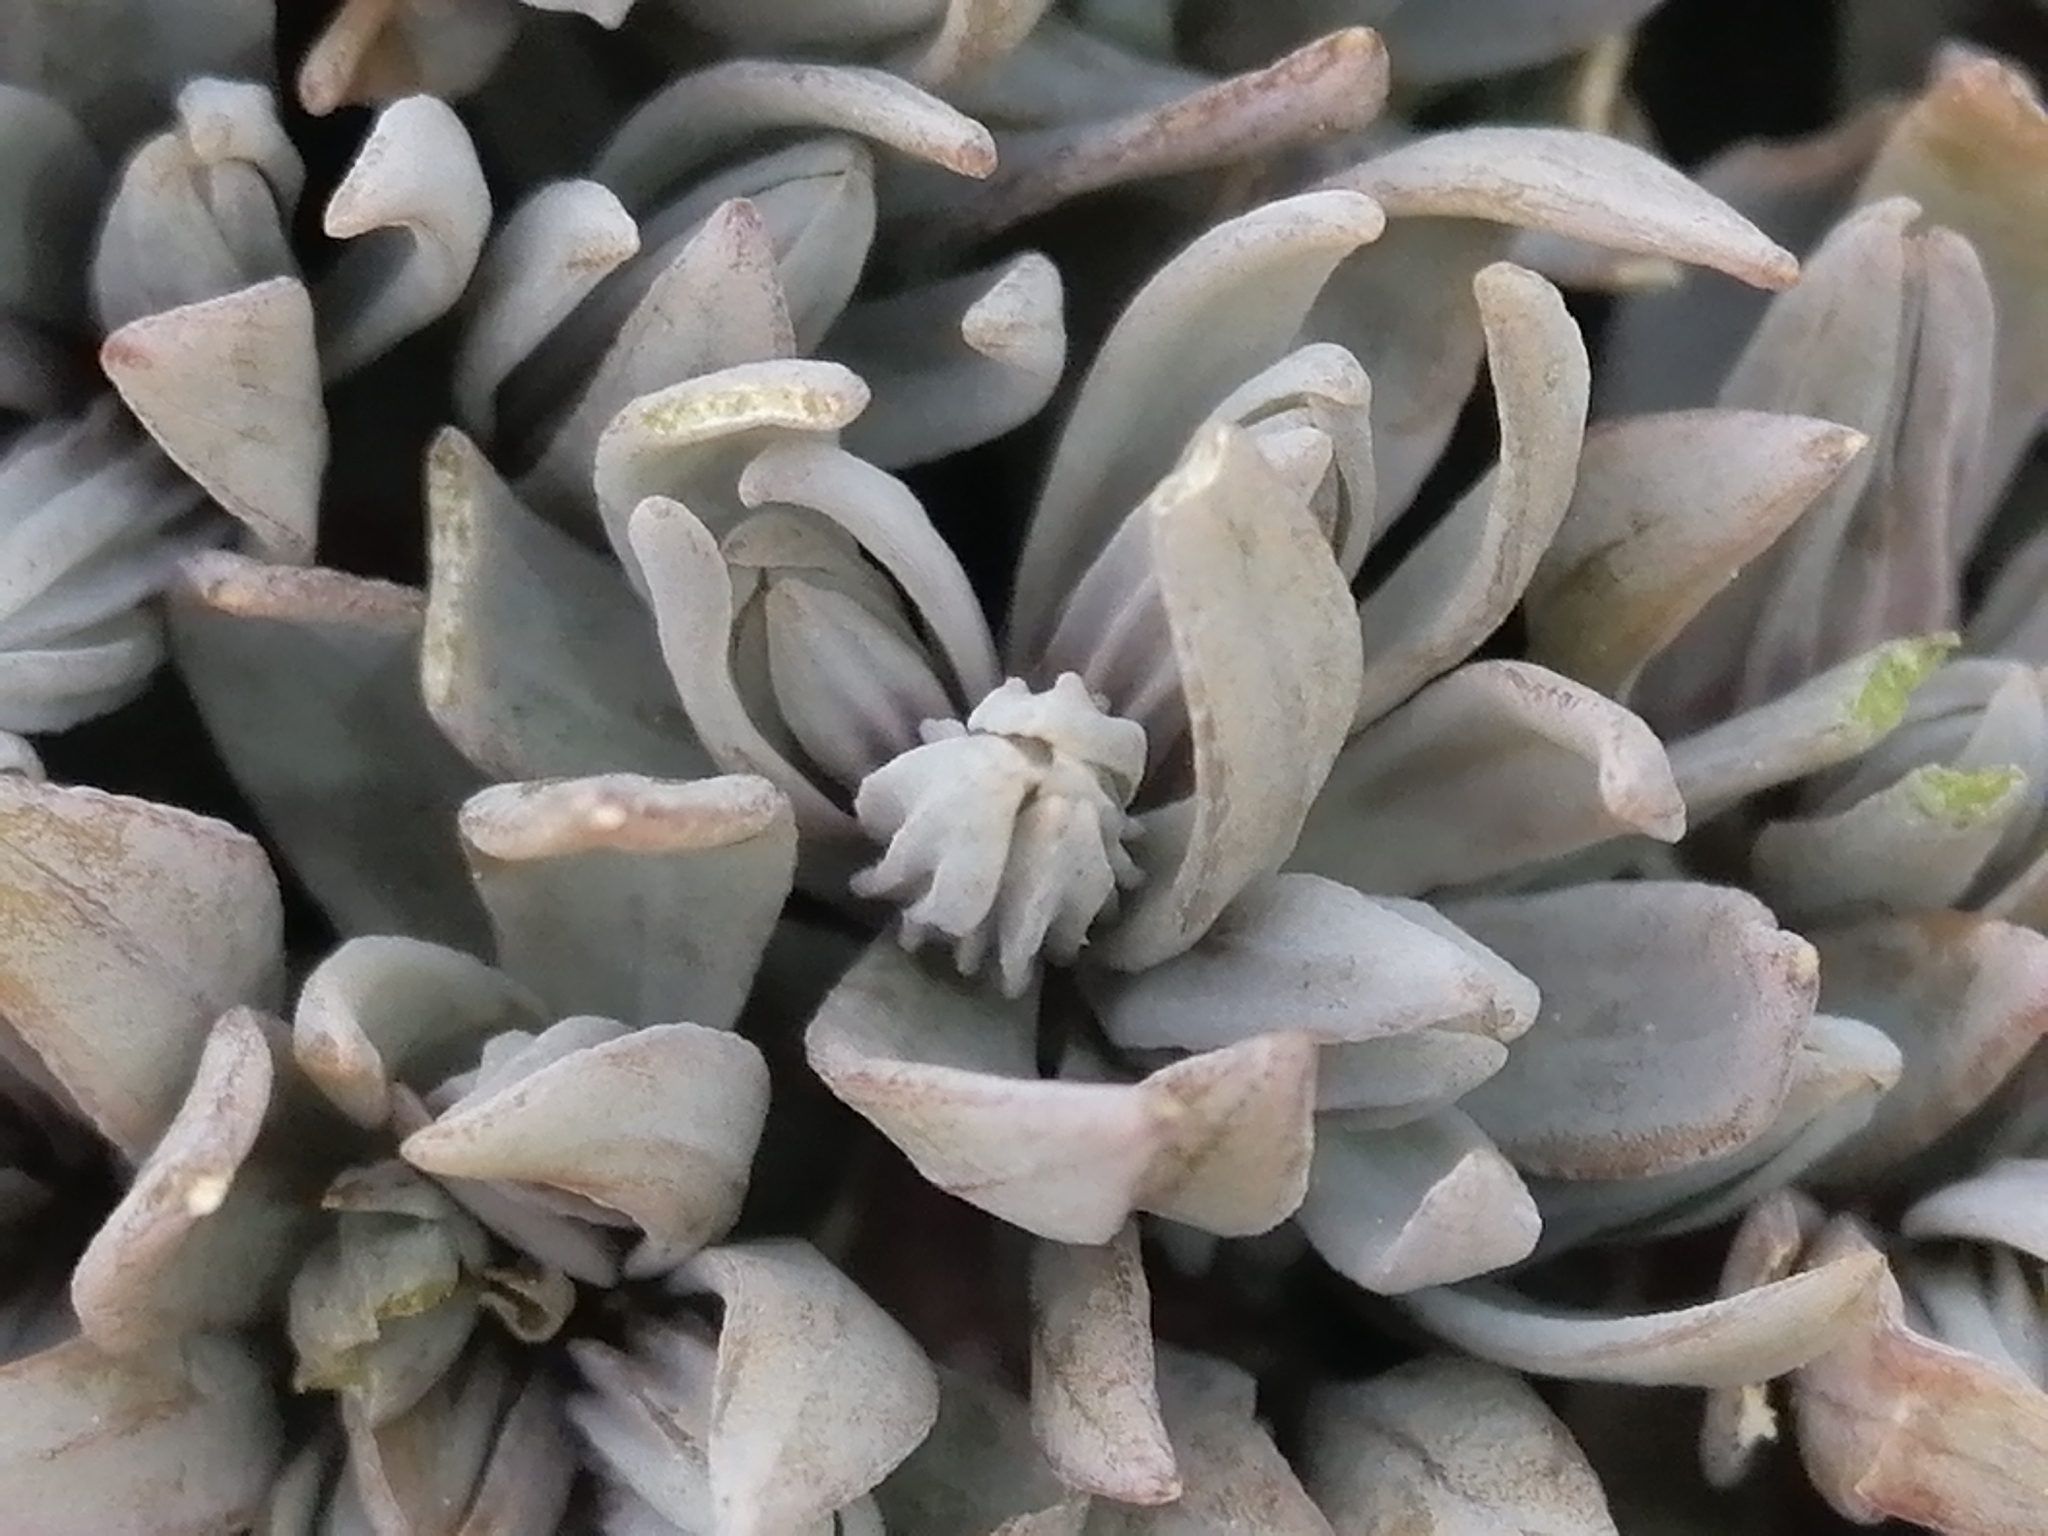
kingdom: Plantae
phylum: Tracheophyta
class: Magnoliopsida
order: Caryophyllales
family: Caryophyllaceae
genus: Stellaria
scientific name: Stellaria roughii
